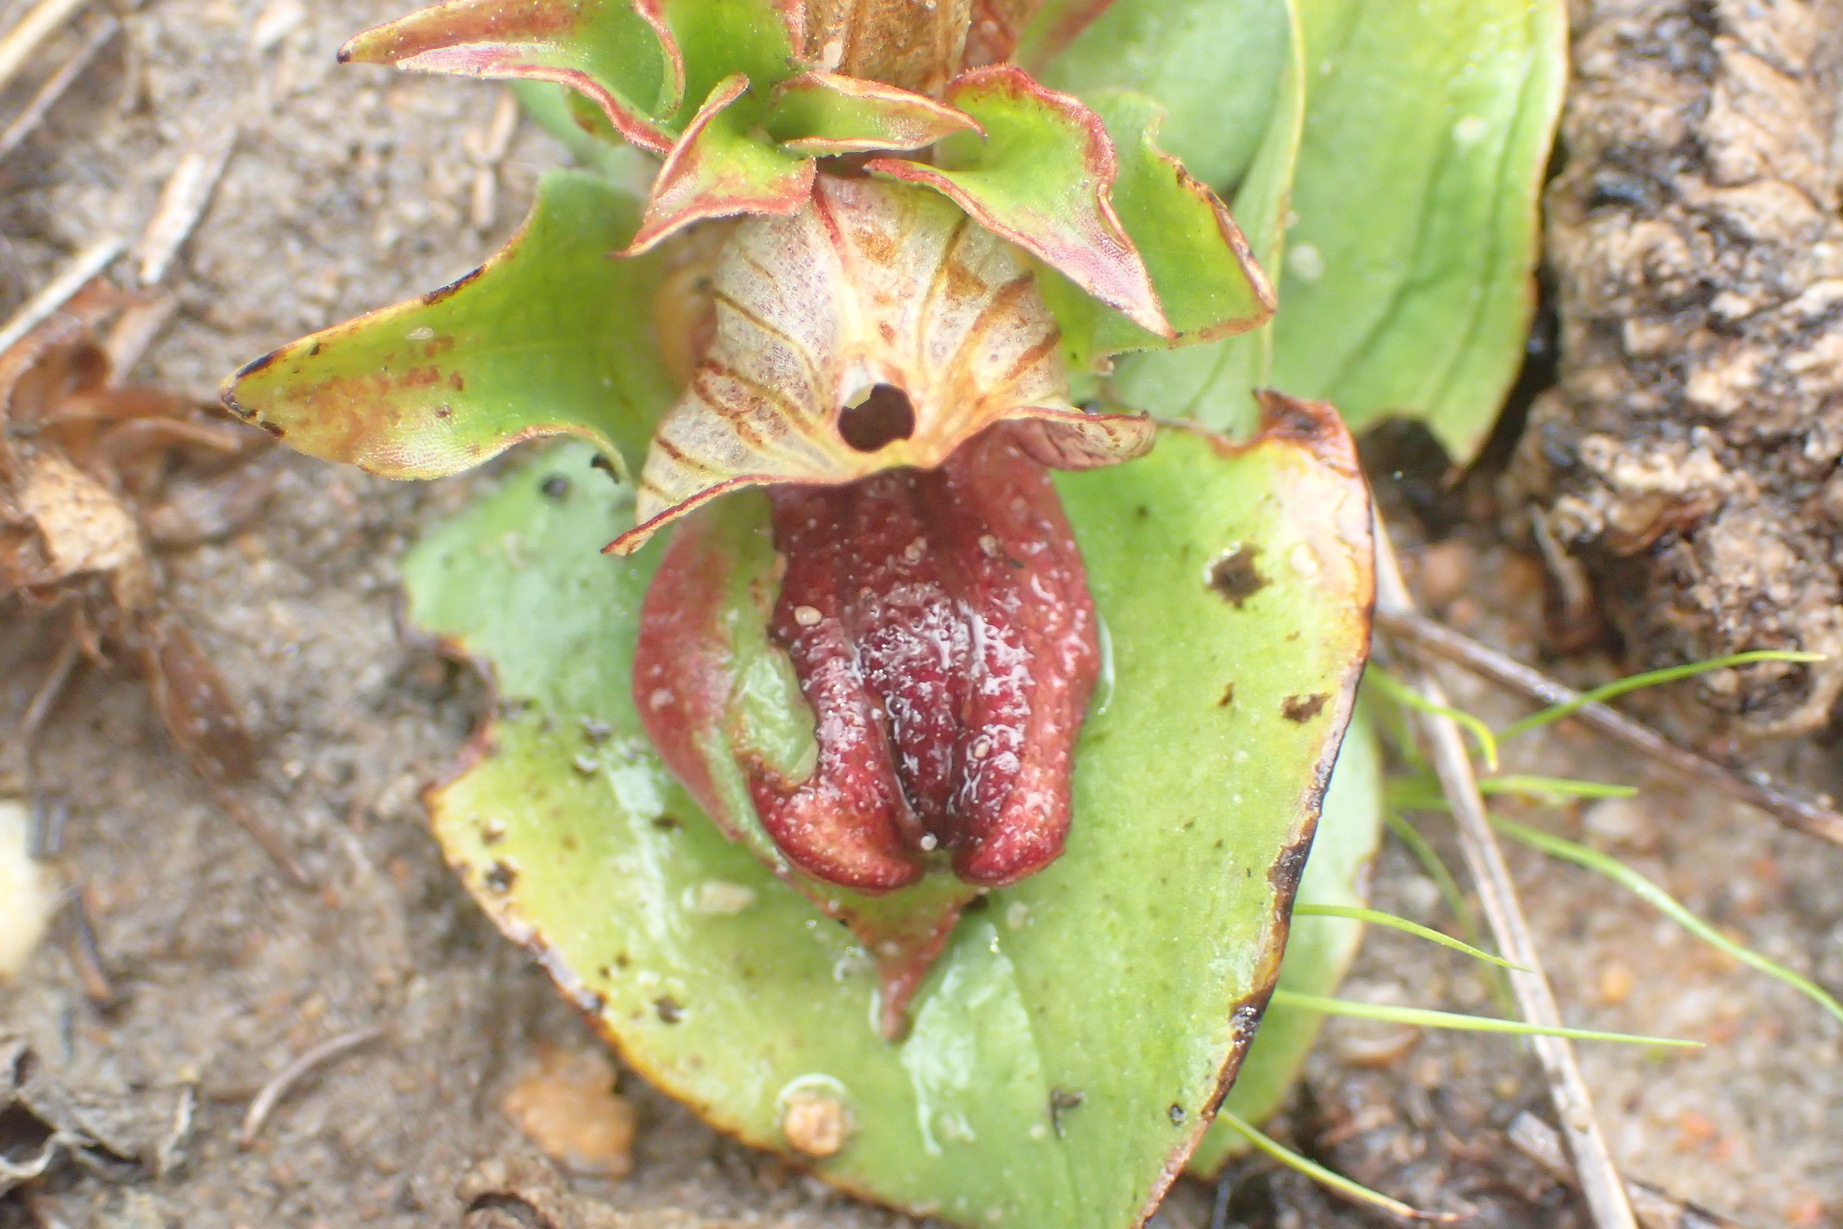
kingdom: Plantae
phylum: Tracheophyta
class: Liliopsida
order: Asparagales
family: Orchidaceae
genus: Satyrium
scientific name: Satyrium pumilum
